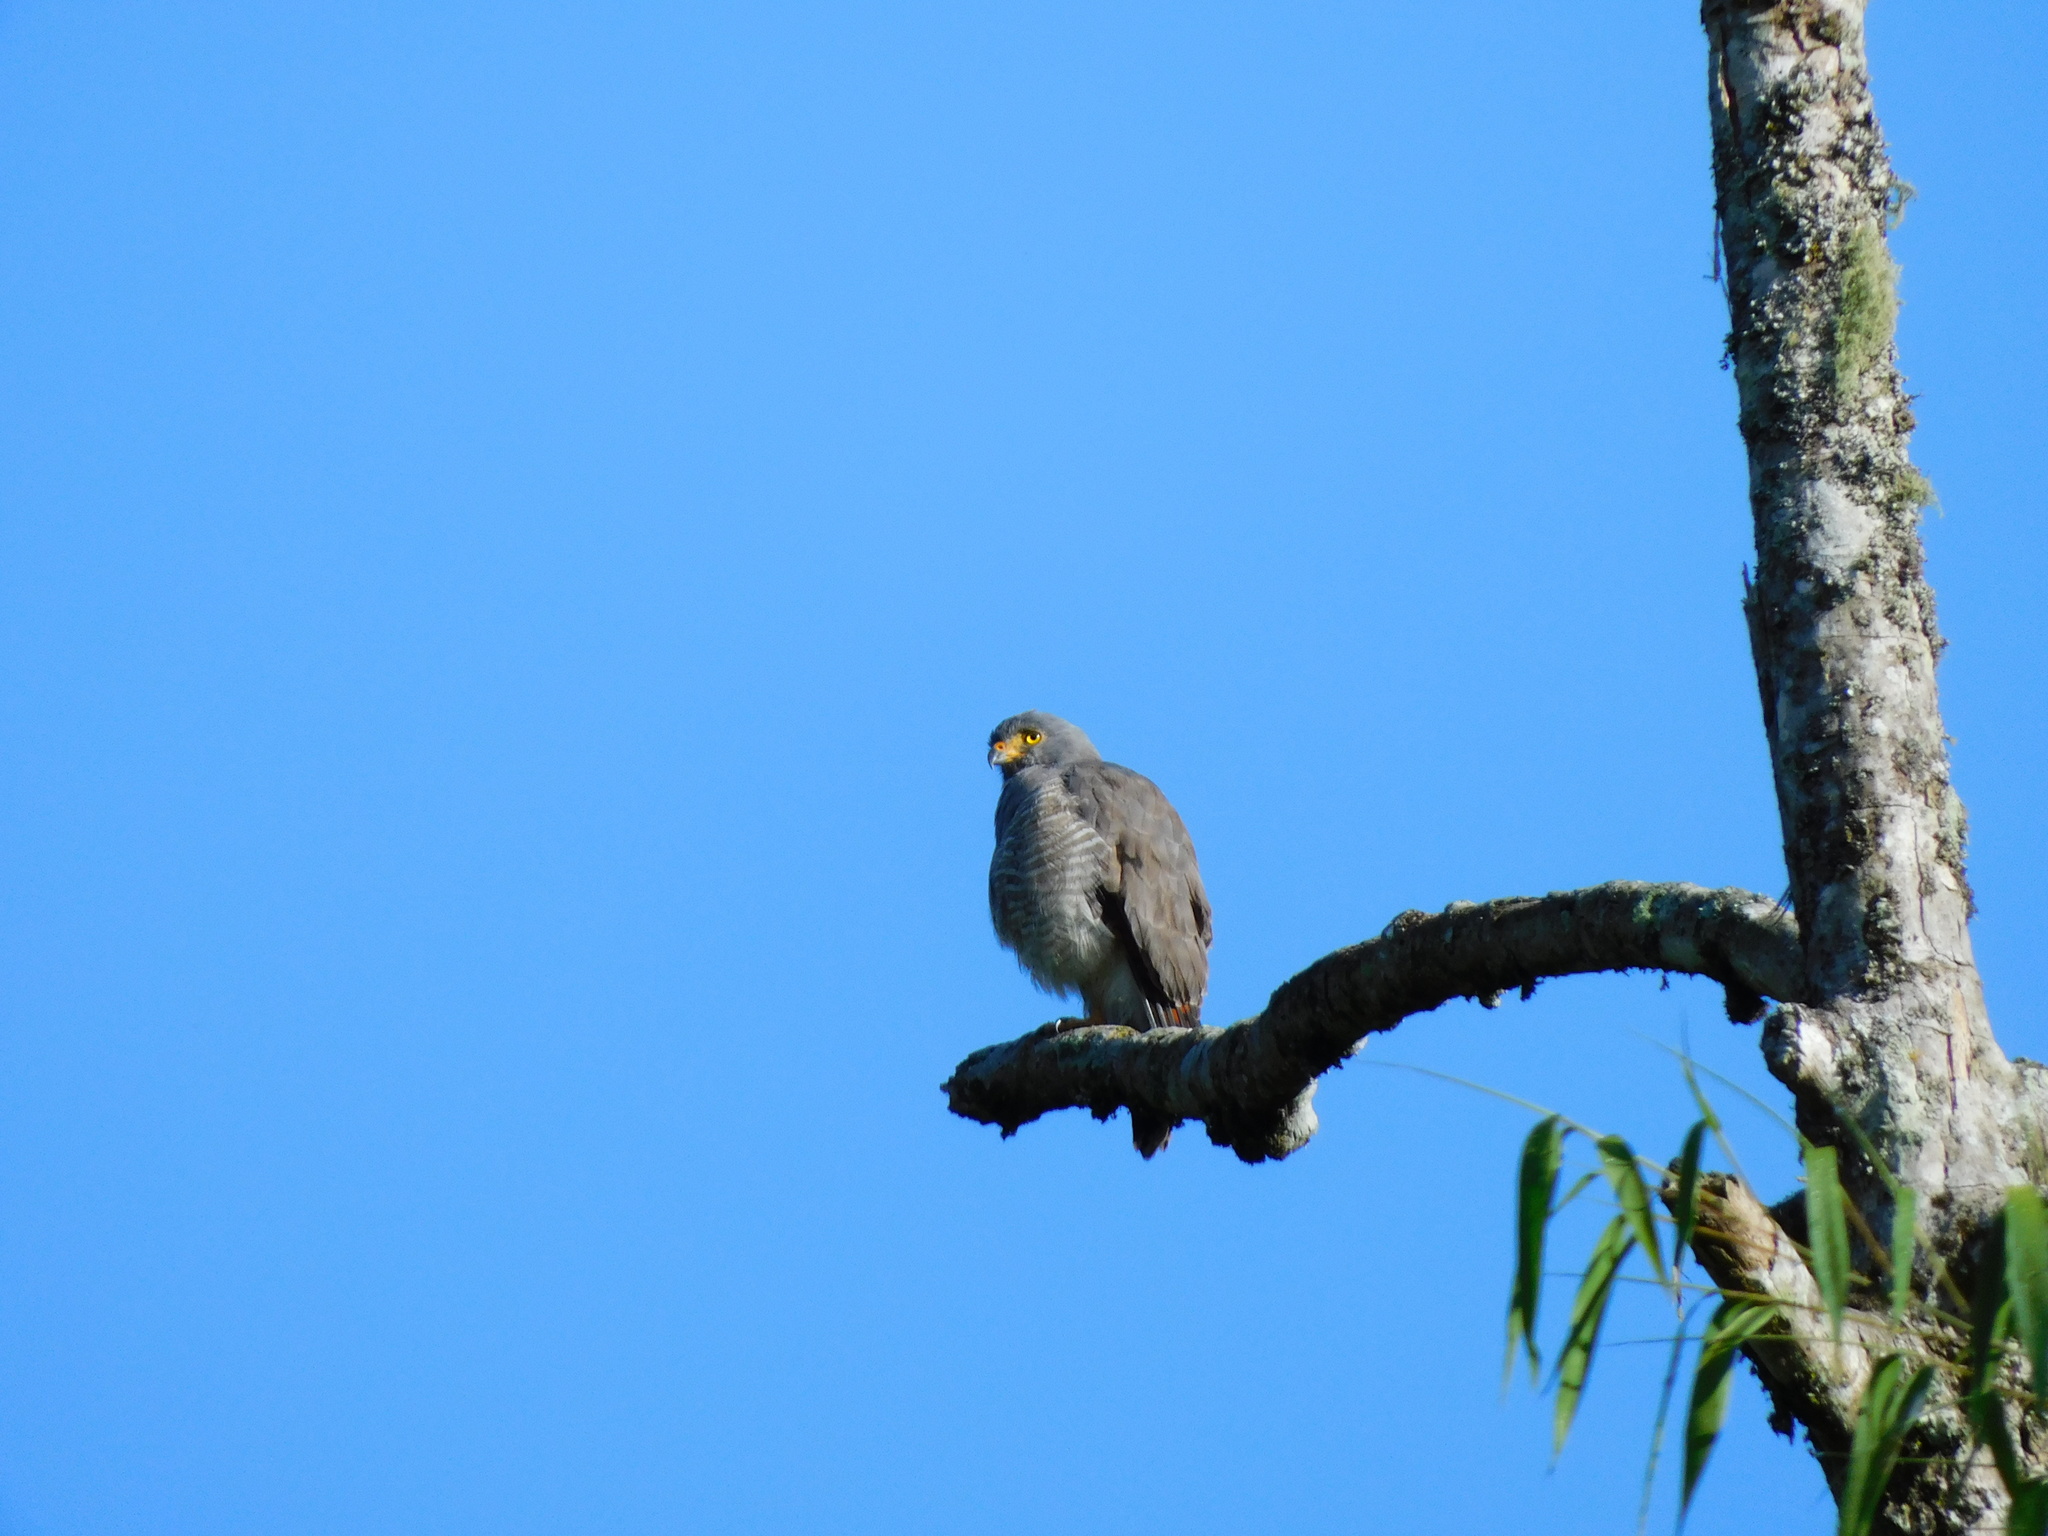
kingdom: Animalia
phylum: Chordata
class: Aves
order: Accipitriformes
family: Accipitridae
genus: Rupornis
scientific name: Rupornis magnirostris
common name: Roadside hawk
